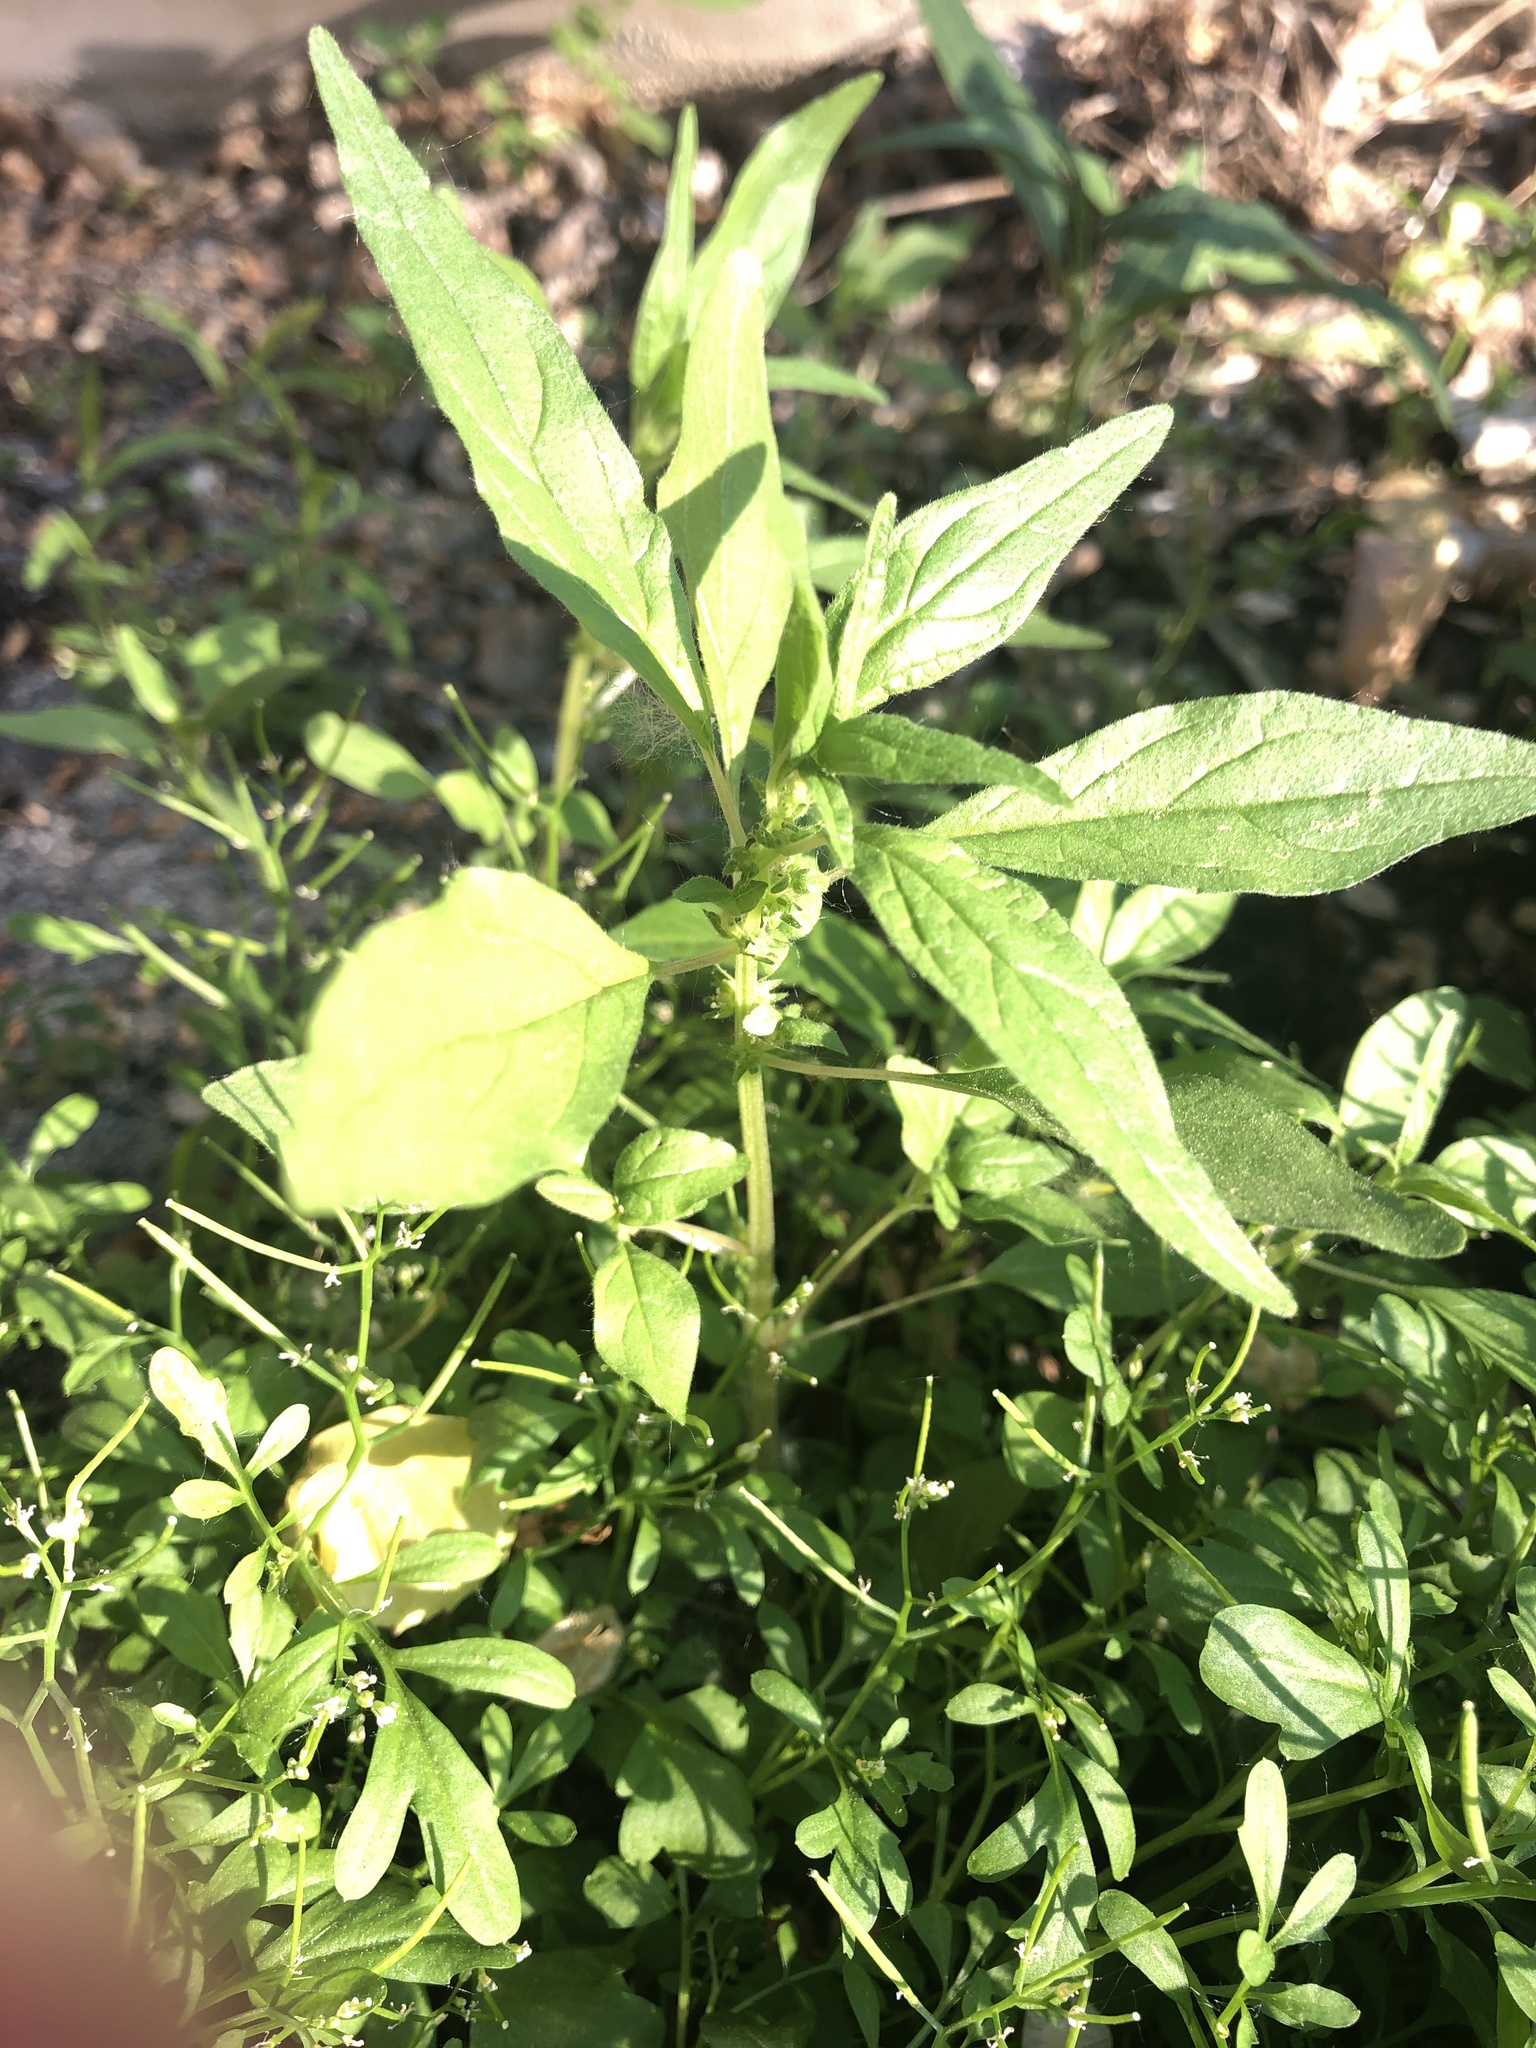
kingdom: Plantae
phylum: Tracheophyta
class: Magnoliopsida
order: Rosales
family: Urticaceae
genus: Parietaria
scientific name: Parietaria pensylvanica
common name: Pennsylvania pellitory
